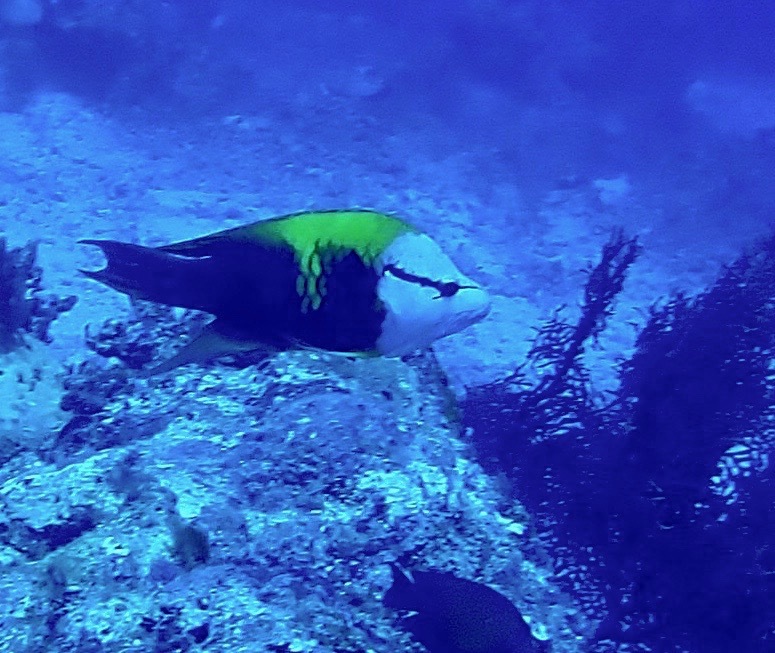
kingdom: Animalia
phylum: Chordata
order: Perciformes
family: Labridae
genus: Epibulus
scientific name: Epibulus insidiator
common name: Slingjaw wrasse
